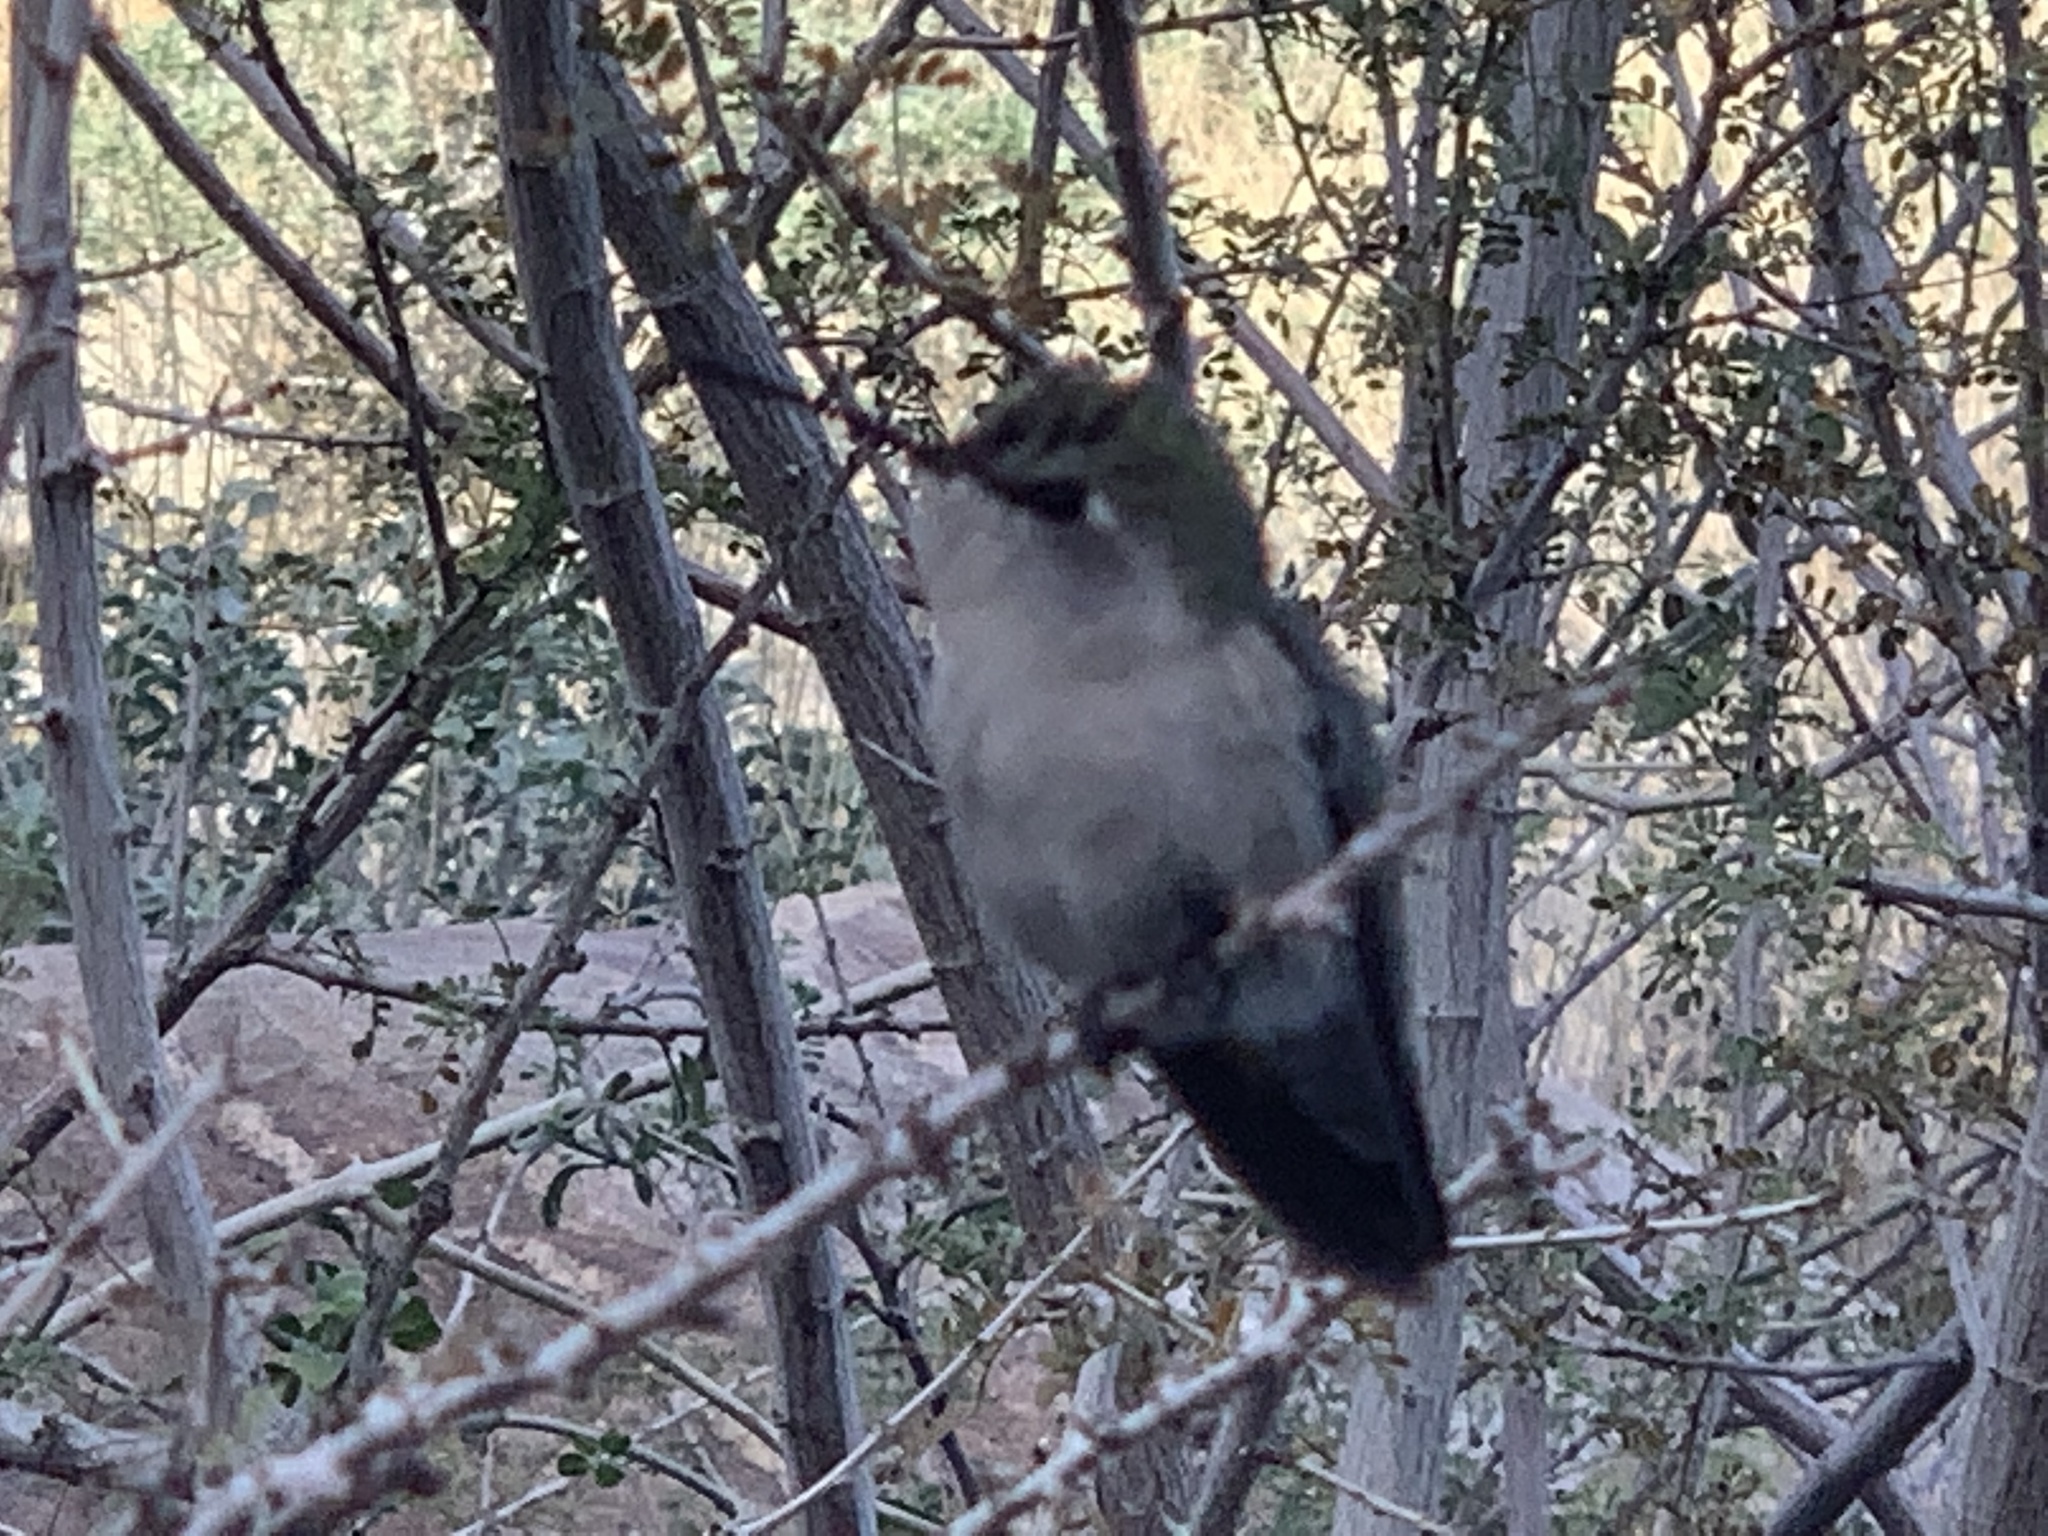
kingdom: Animalia
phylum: Chordata
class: Aves
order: Apodiformes
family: Trochilidae
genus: Calypte
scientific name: Calypte costae
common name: Costa's hummingbird
